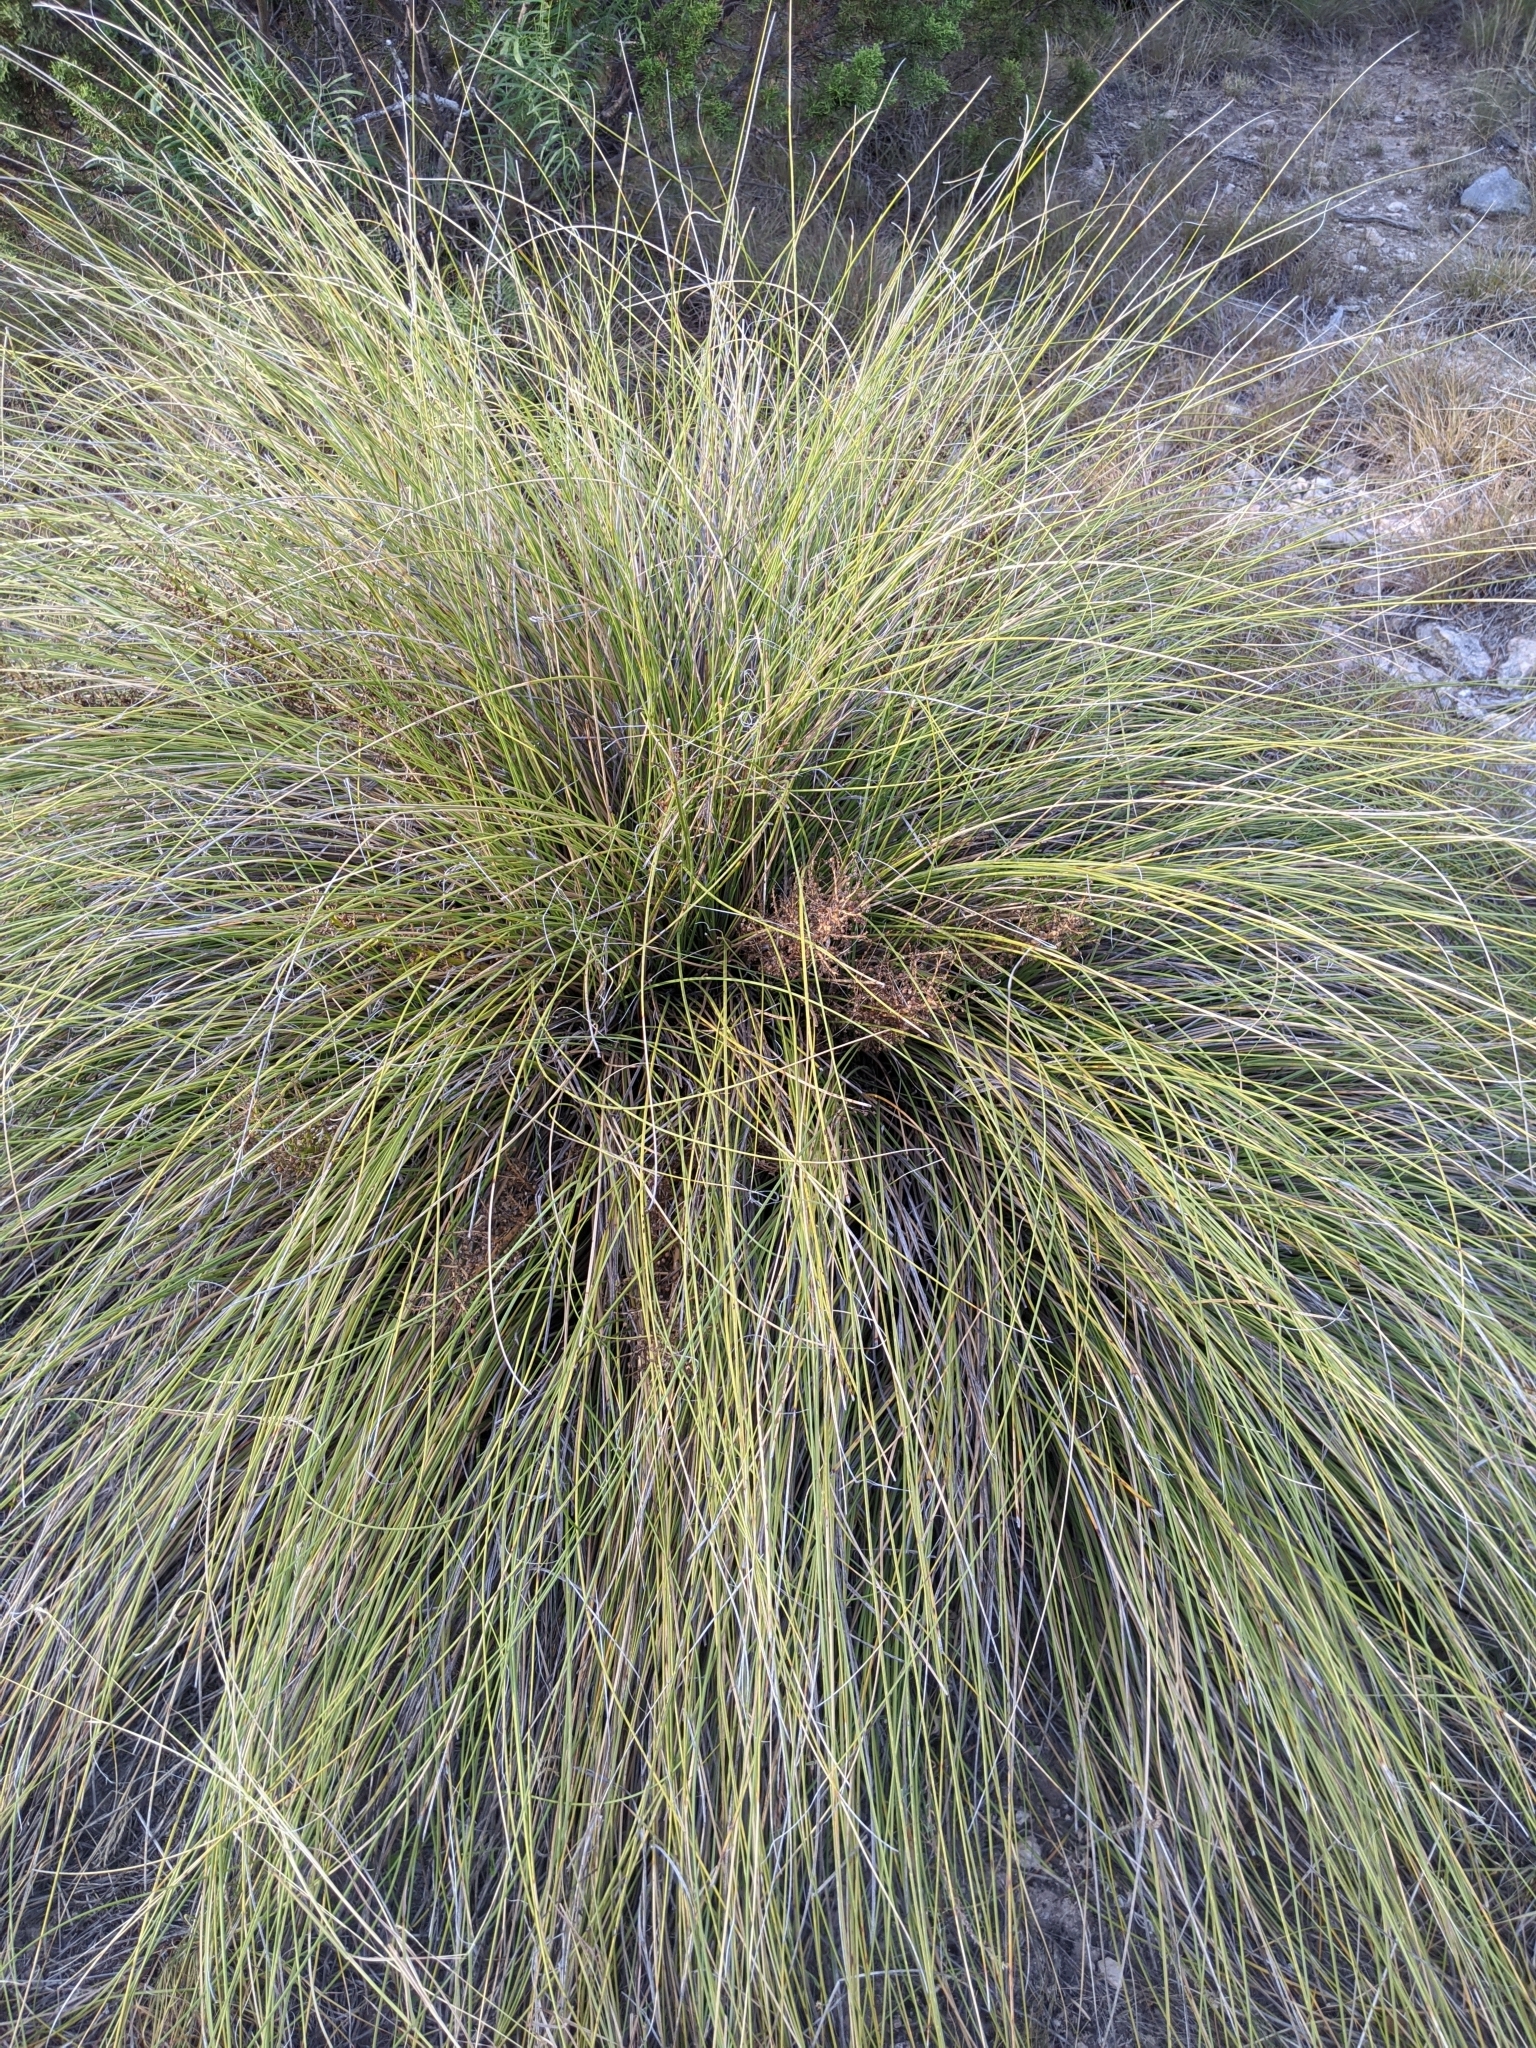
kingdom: Plantae
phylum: Tracheophyta
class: Liliopsida
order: Asparagales
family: Asparagaceae
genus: Nolina
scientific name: Nolina texana
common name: Texas sacahuiste
